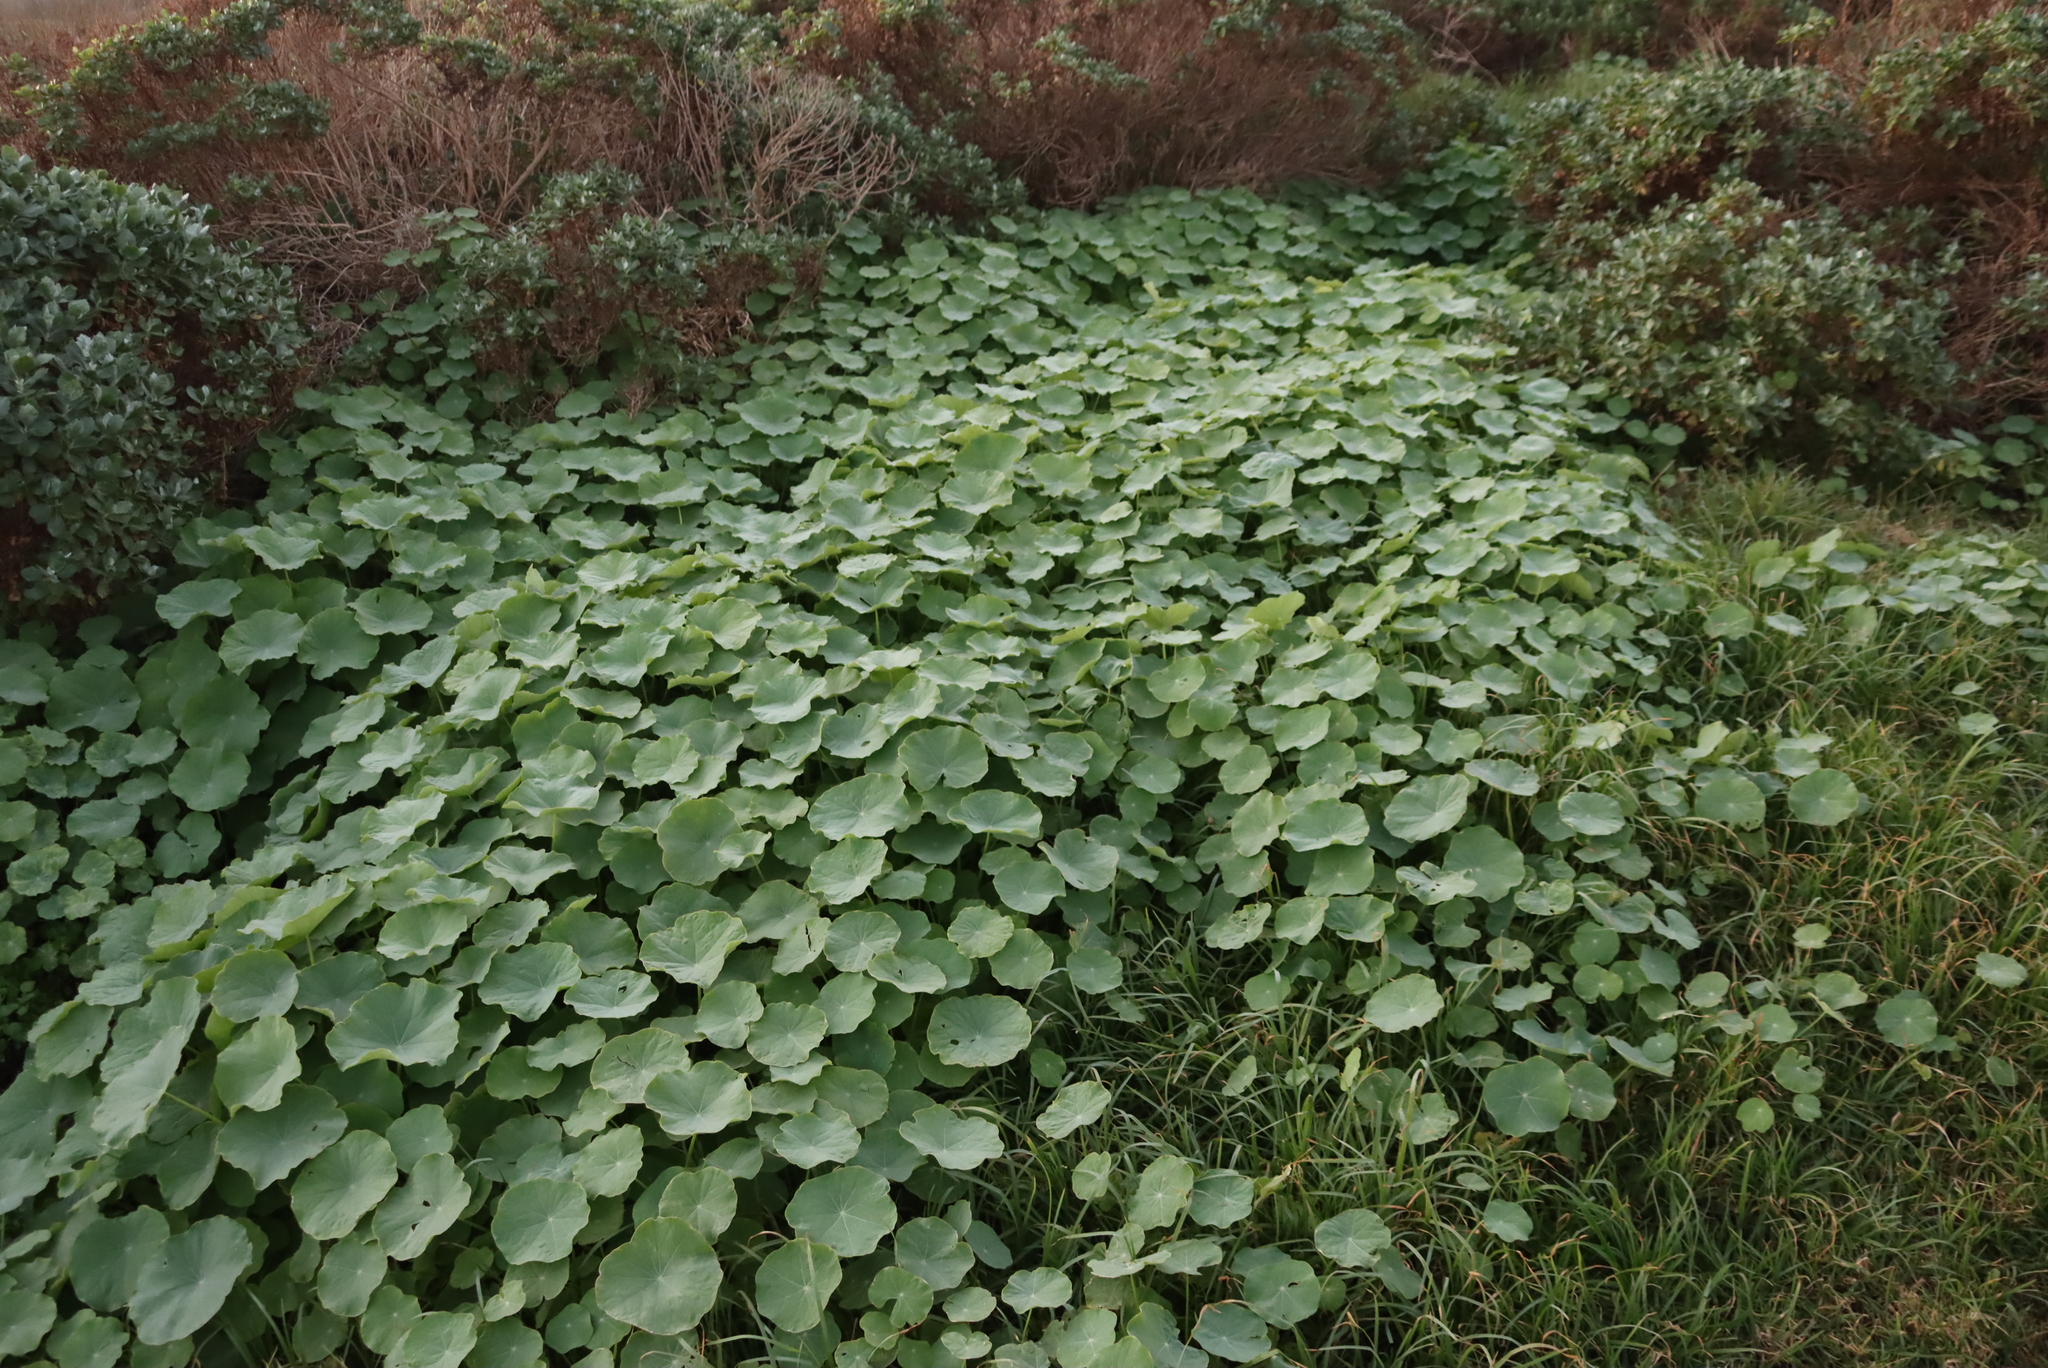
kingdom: Plantae
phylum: Tracheophyta
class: Magnoliopsida
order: Brassicales
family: Tropaeolaceae
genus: Tropaeolum
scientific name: Tropaeolum majus
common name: Nasturtium
